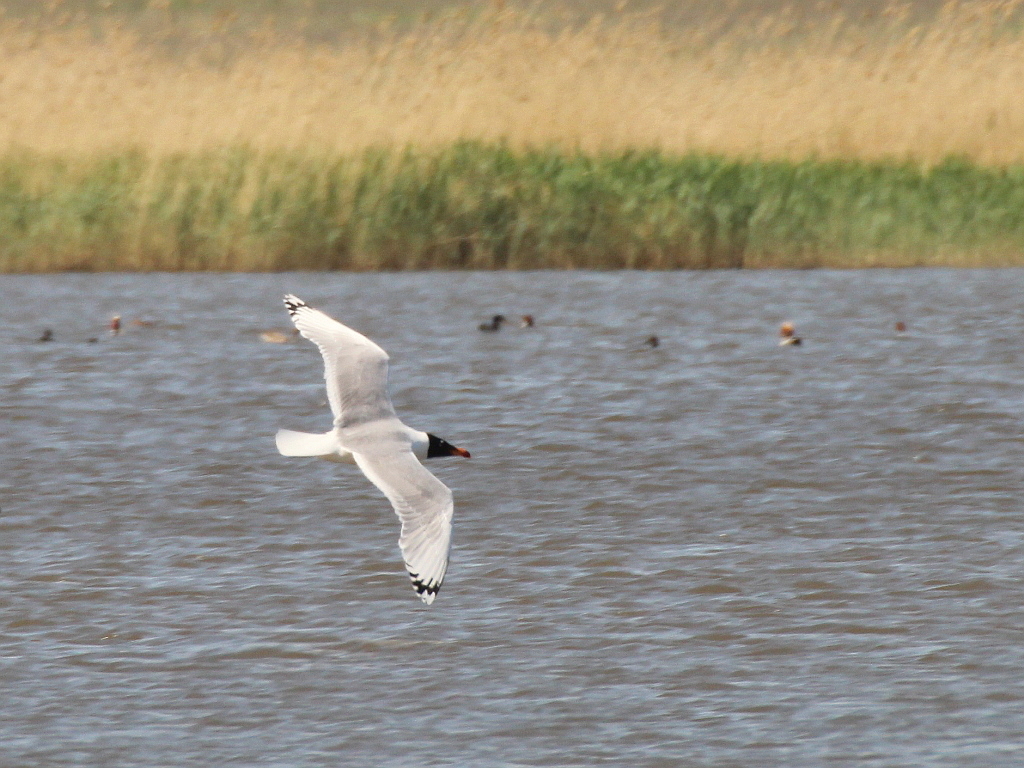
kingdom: Animalia
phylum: Chordata
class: Aves
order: Charadriiformes
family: Laridae
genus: Ichthyaetus
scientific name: Ichthyaetus ichthyaetus
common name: Pallas's gull
